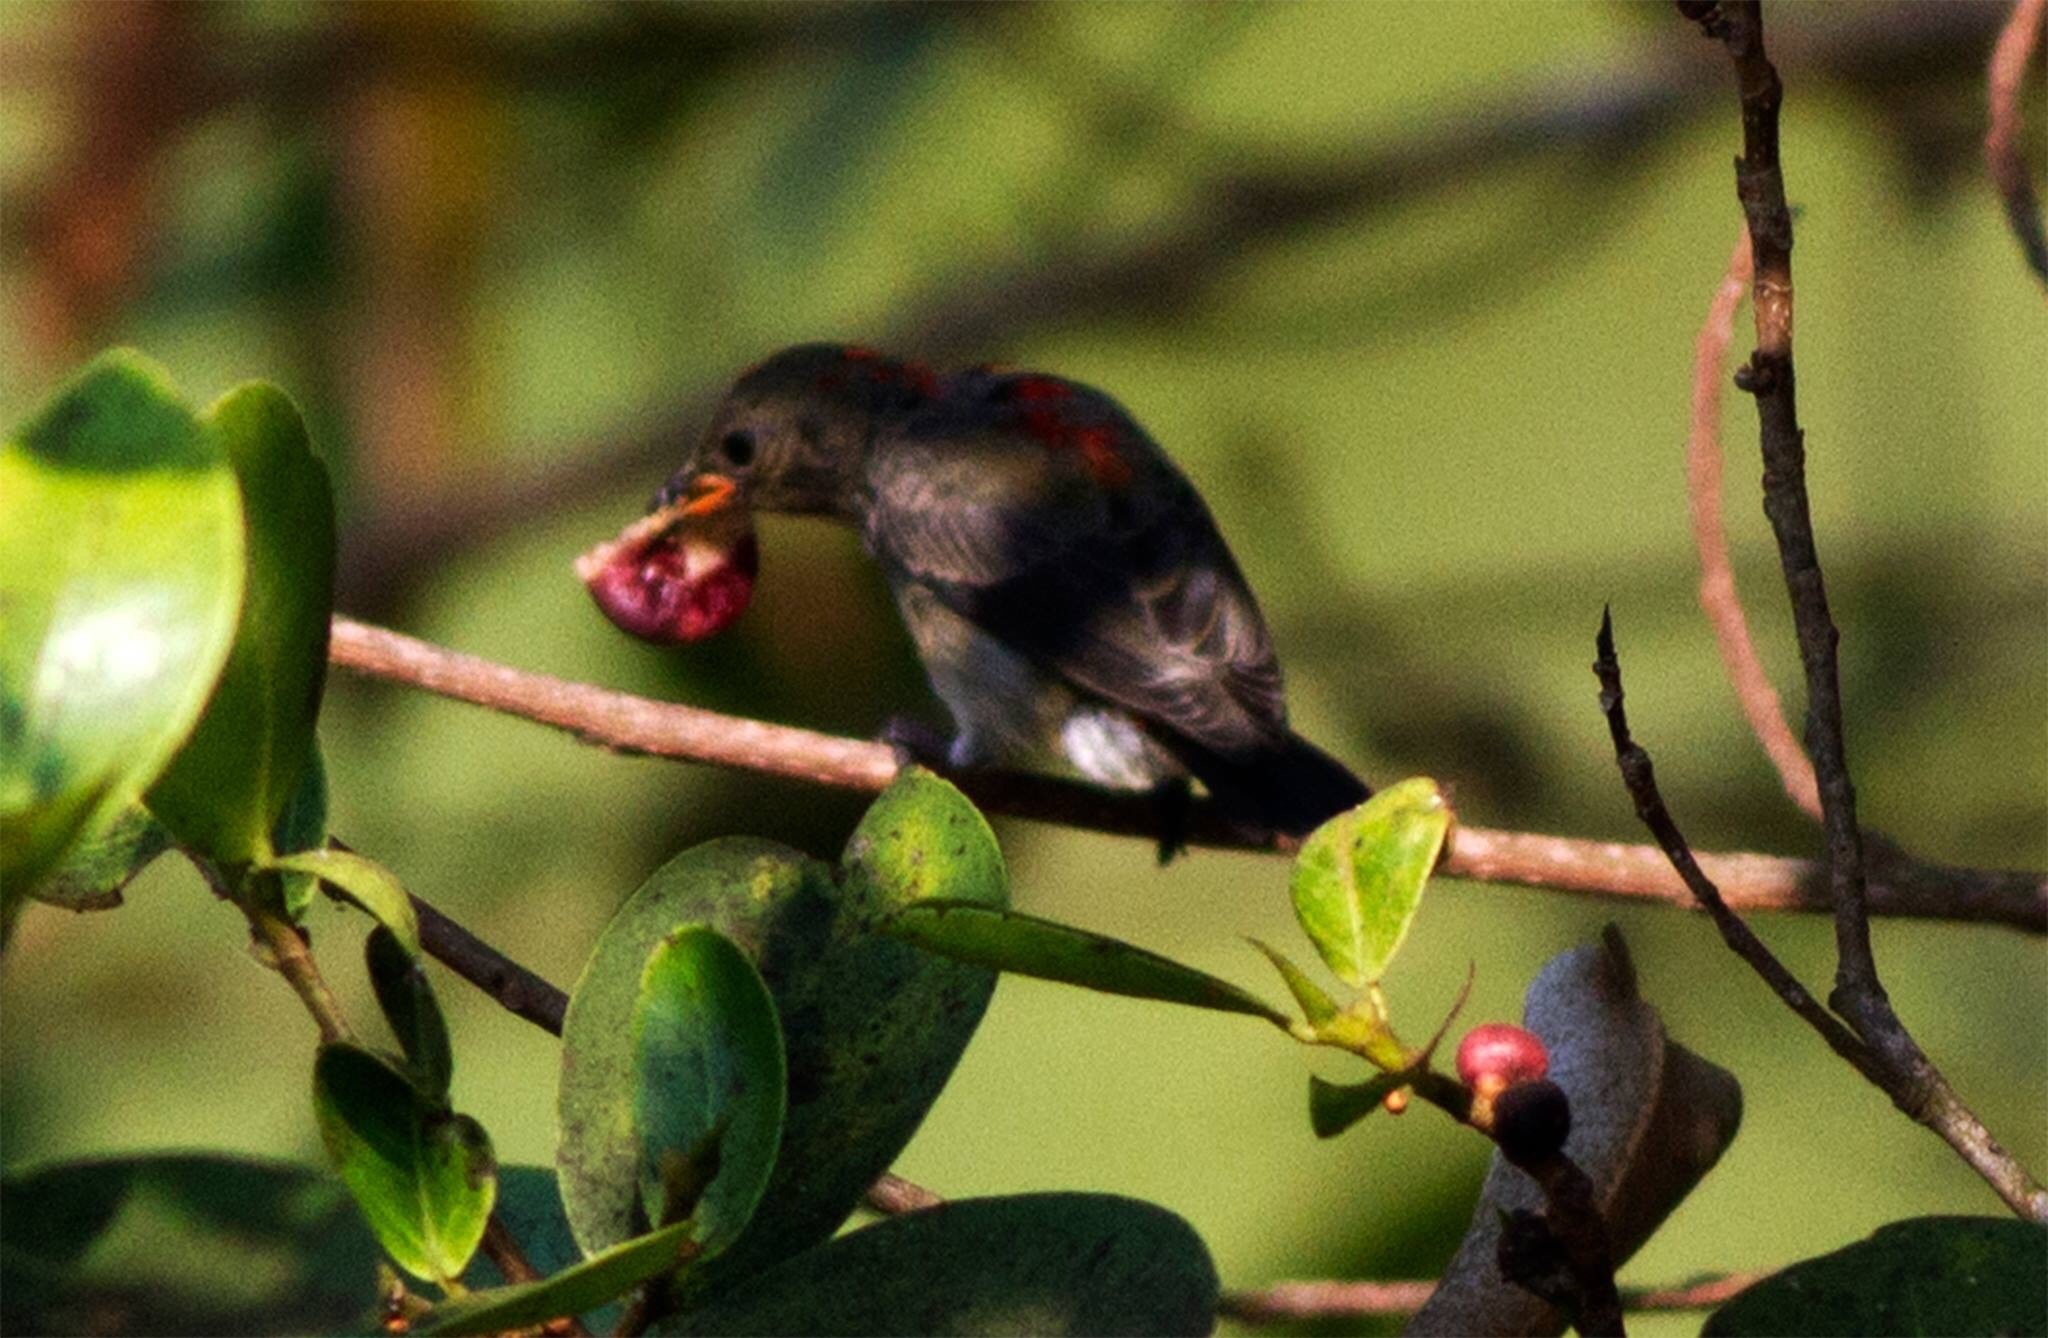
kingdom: Animalia
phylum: Chordata
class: Aves
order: Passeriformes
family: Dicaeidae
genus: Dicaeum
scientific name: Dicaeum cruentatum
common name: Scarlet-backed flowerpecker
